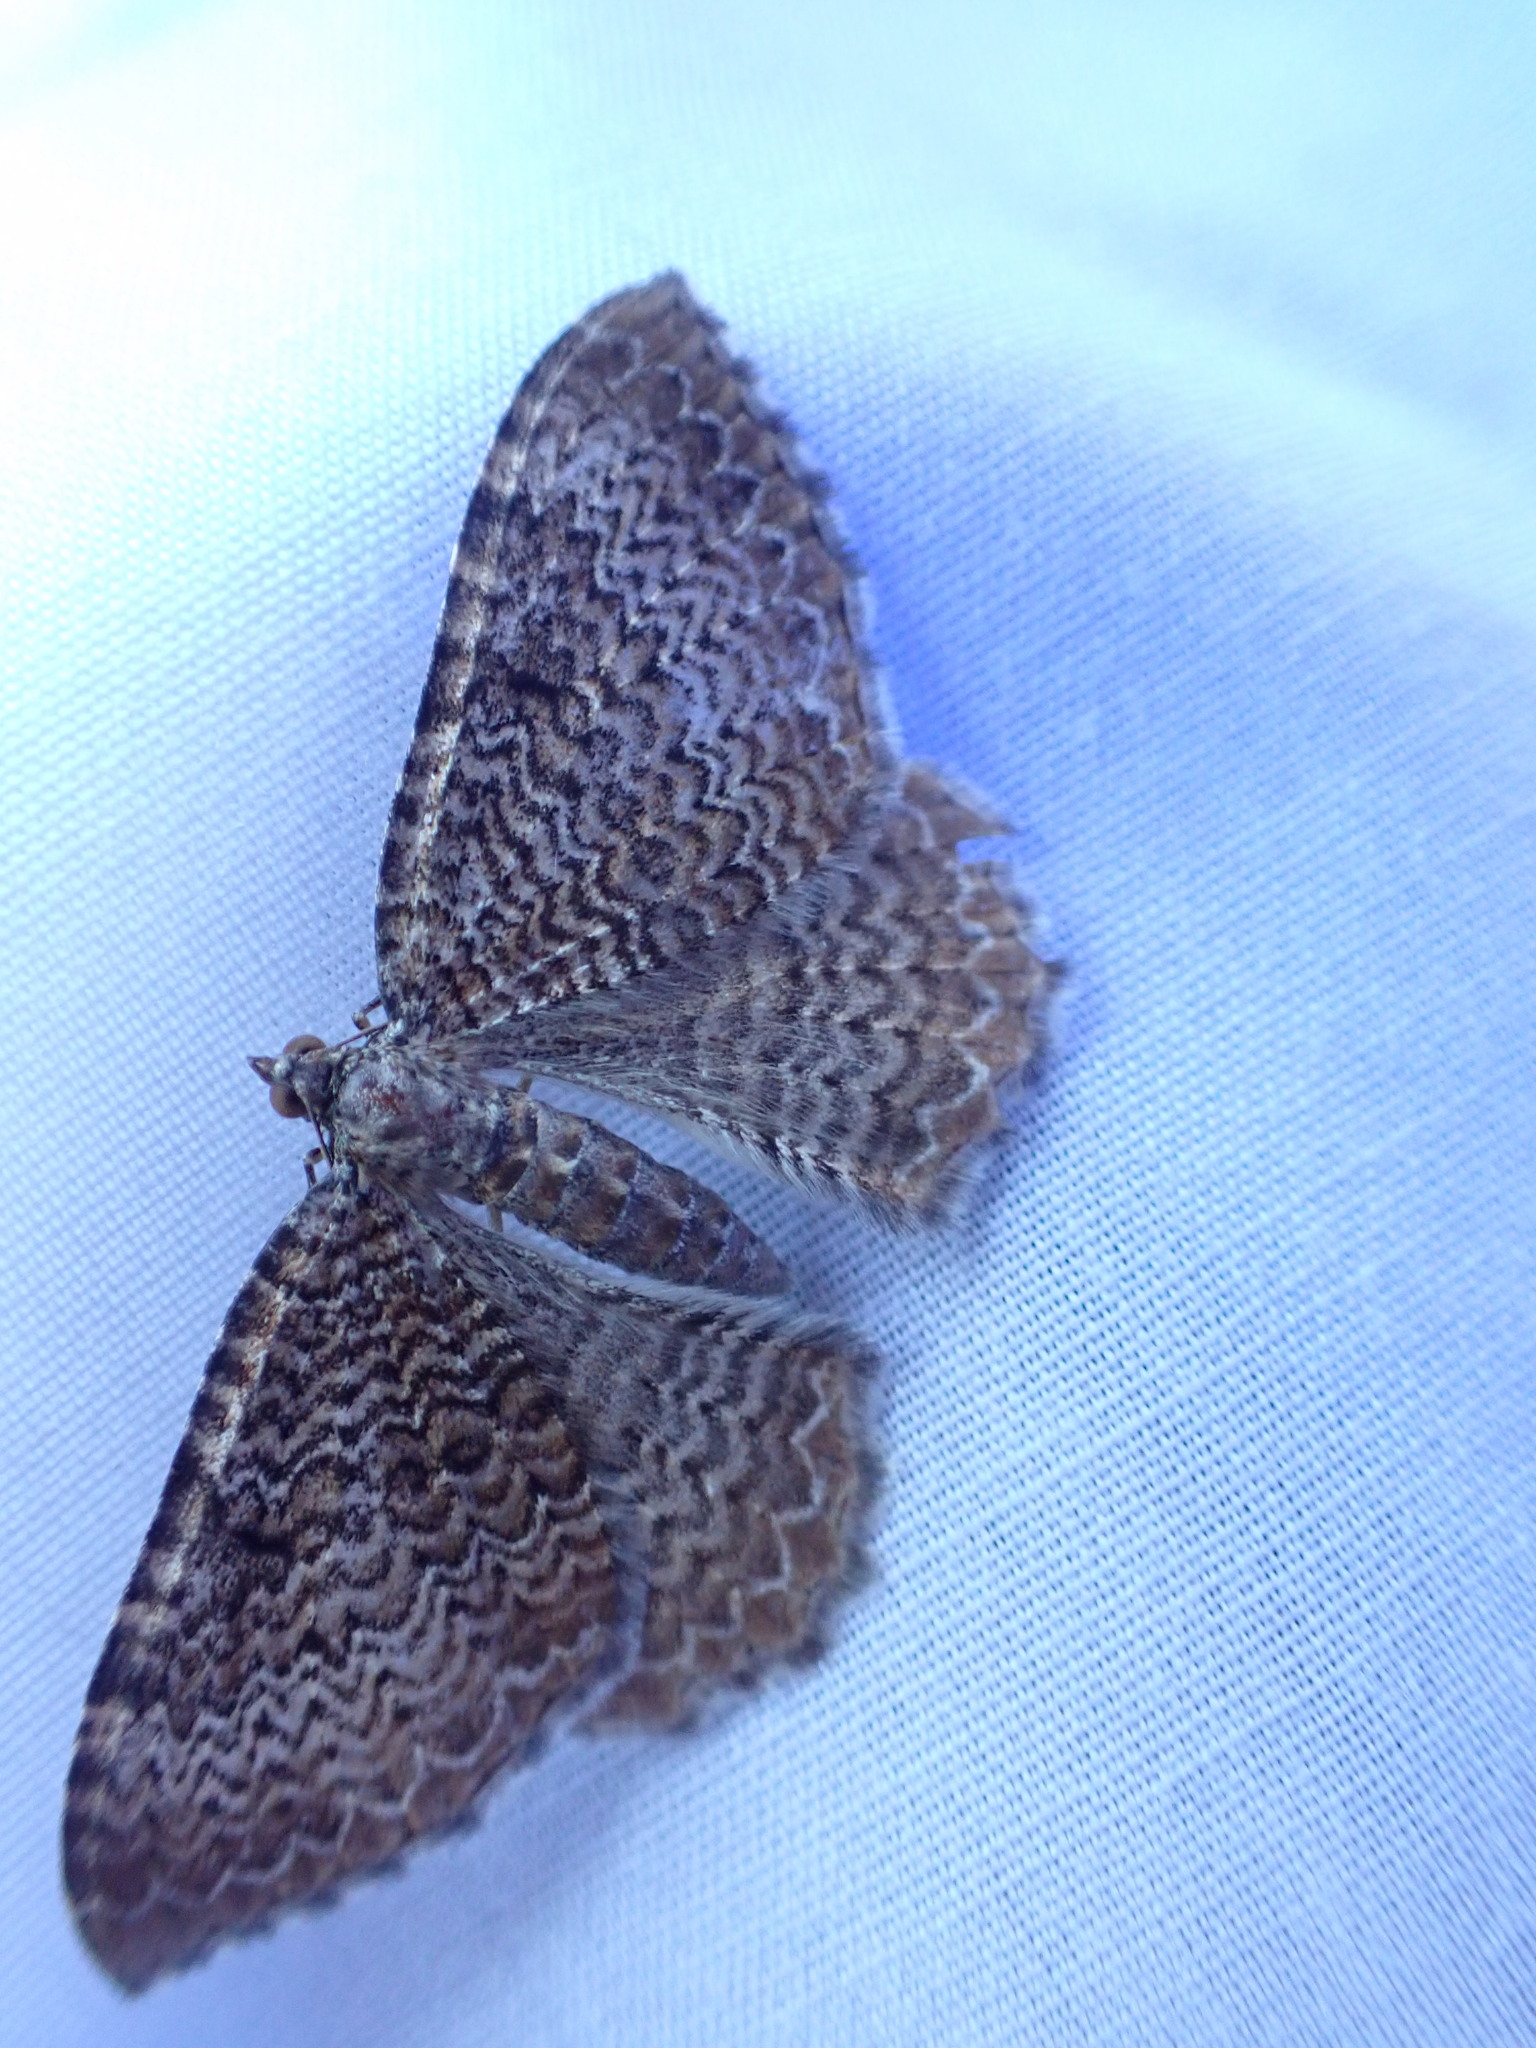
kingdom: Animalia
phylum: Arthropoda
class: Insecta
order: Lepidoptera
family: Geometridae
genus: Rheumaptera
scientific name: Rheumaptera undulata
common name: Scallop shell
